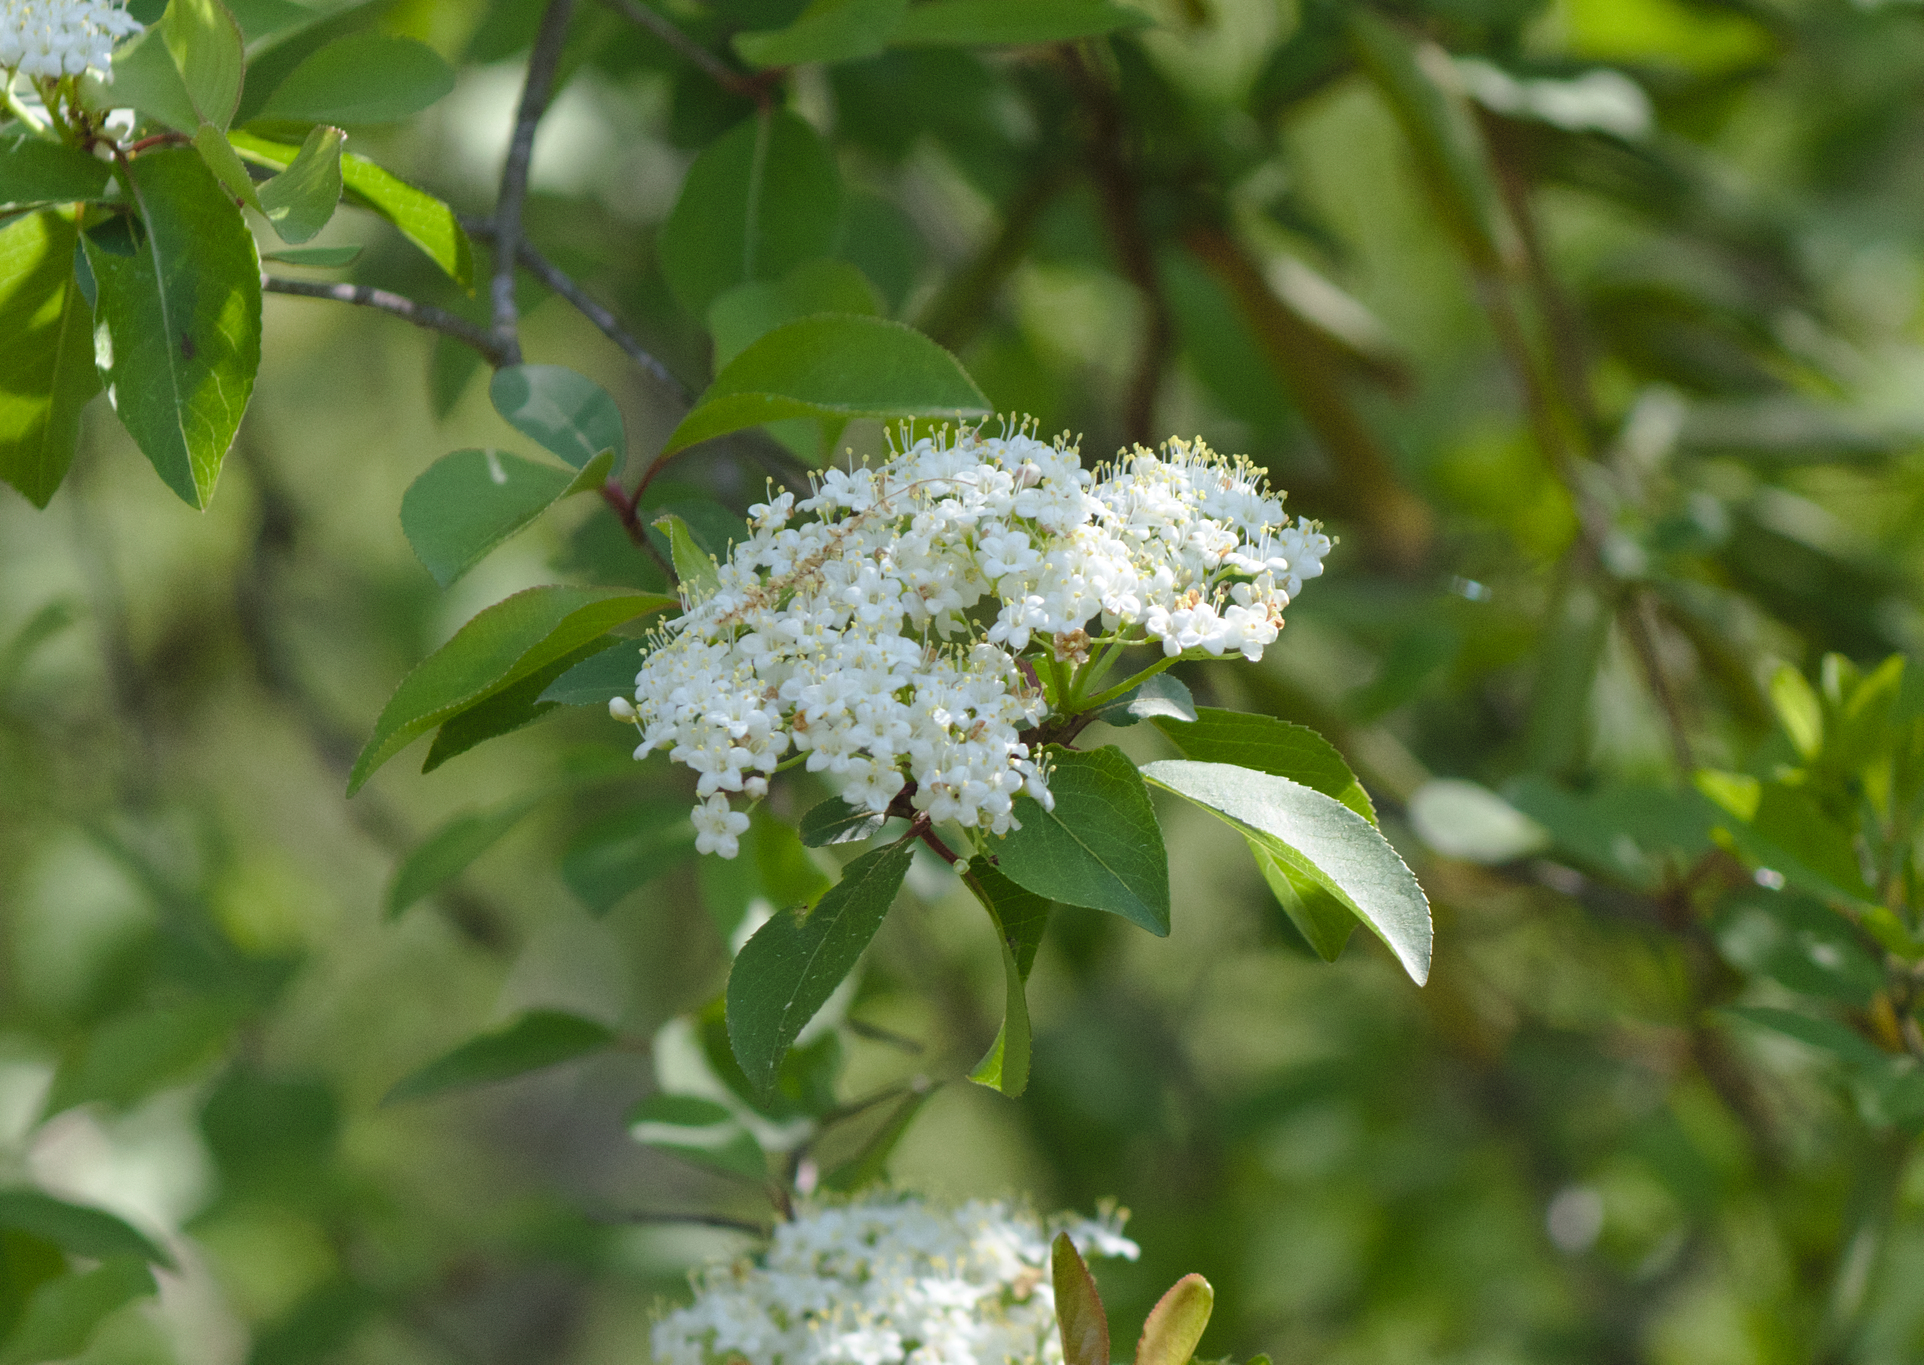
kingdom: Plantae
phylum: Tracheophyta
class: Magnoliopsida
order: Dipsacales
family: Viburnaceae
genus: Viburnum
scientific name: Viburnum prunifolium
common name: Black haw
